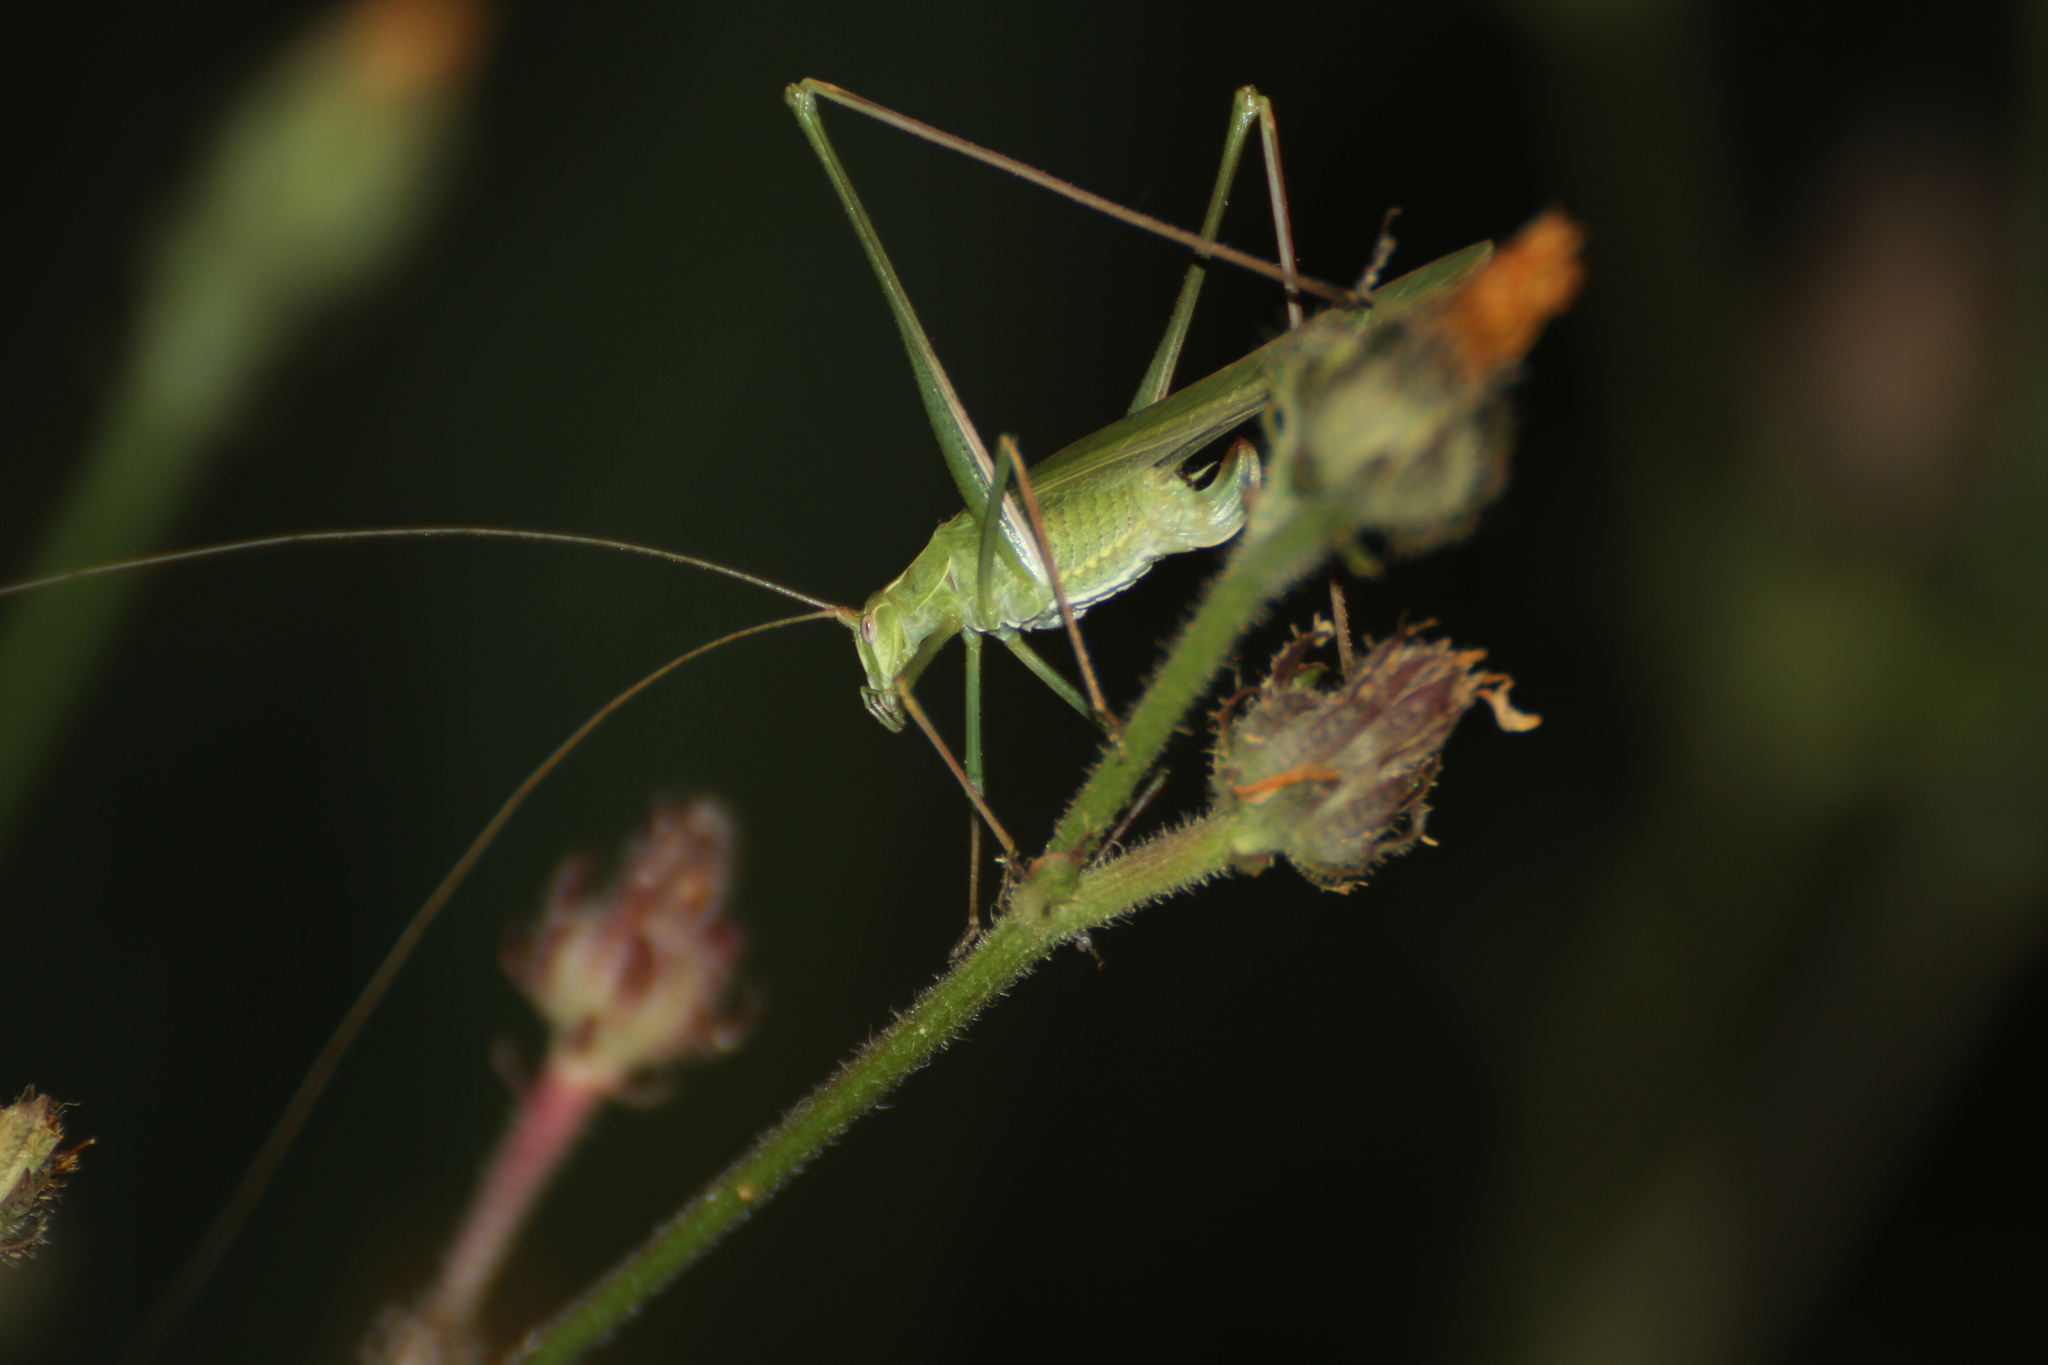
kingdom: Animalia
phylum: Arthropoda
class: Insecta
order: Orthoptera
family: Tettigoniidae
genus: Tylopsis
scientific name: Tylopsis lilifolia
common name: Lily bush-cricket
